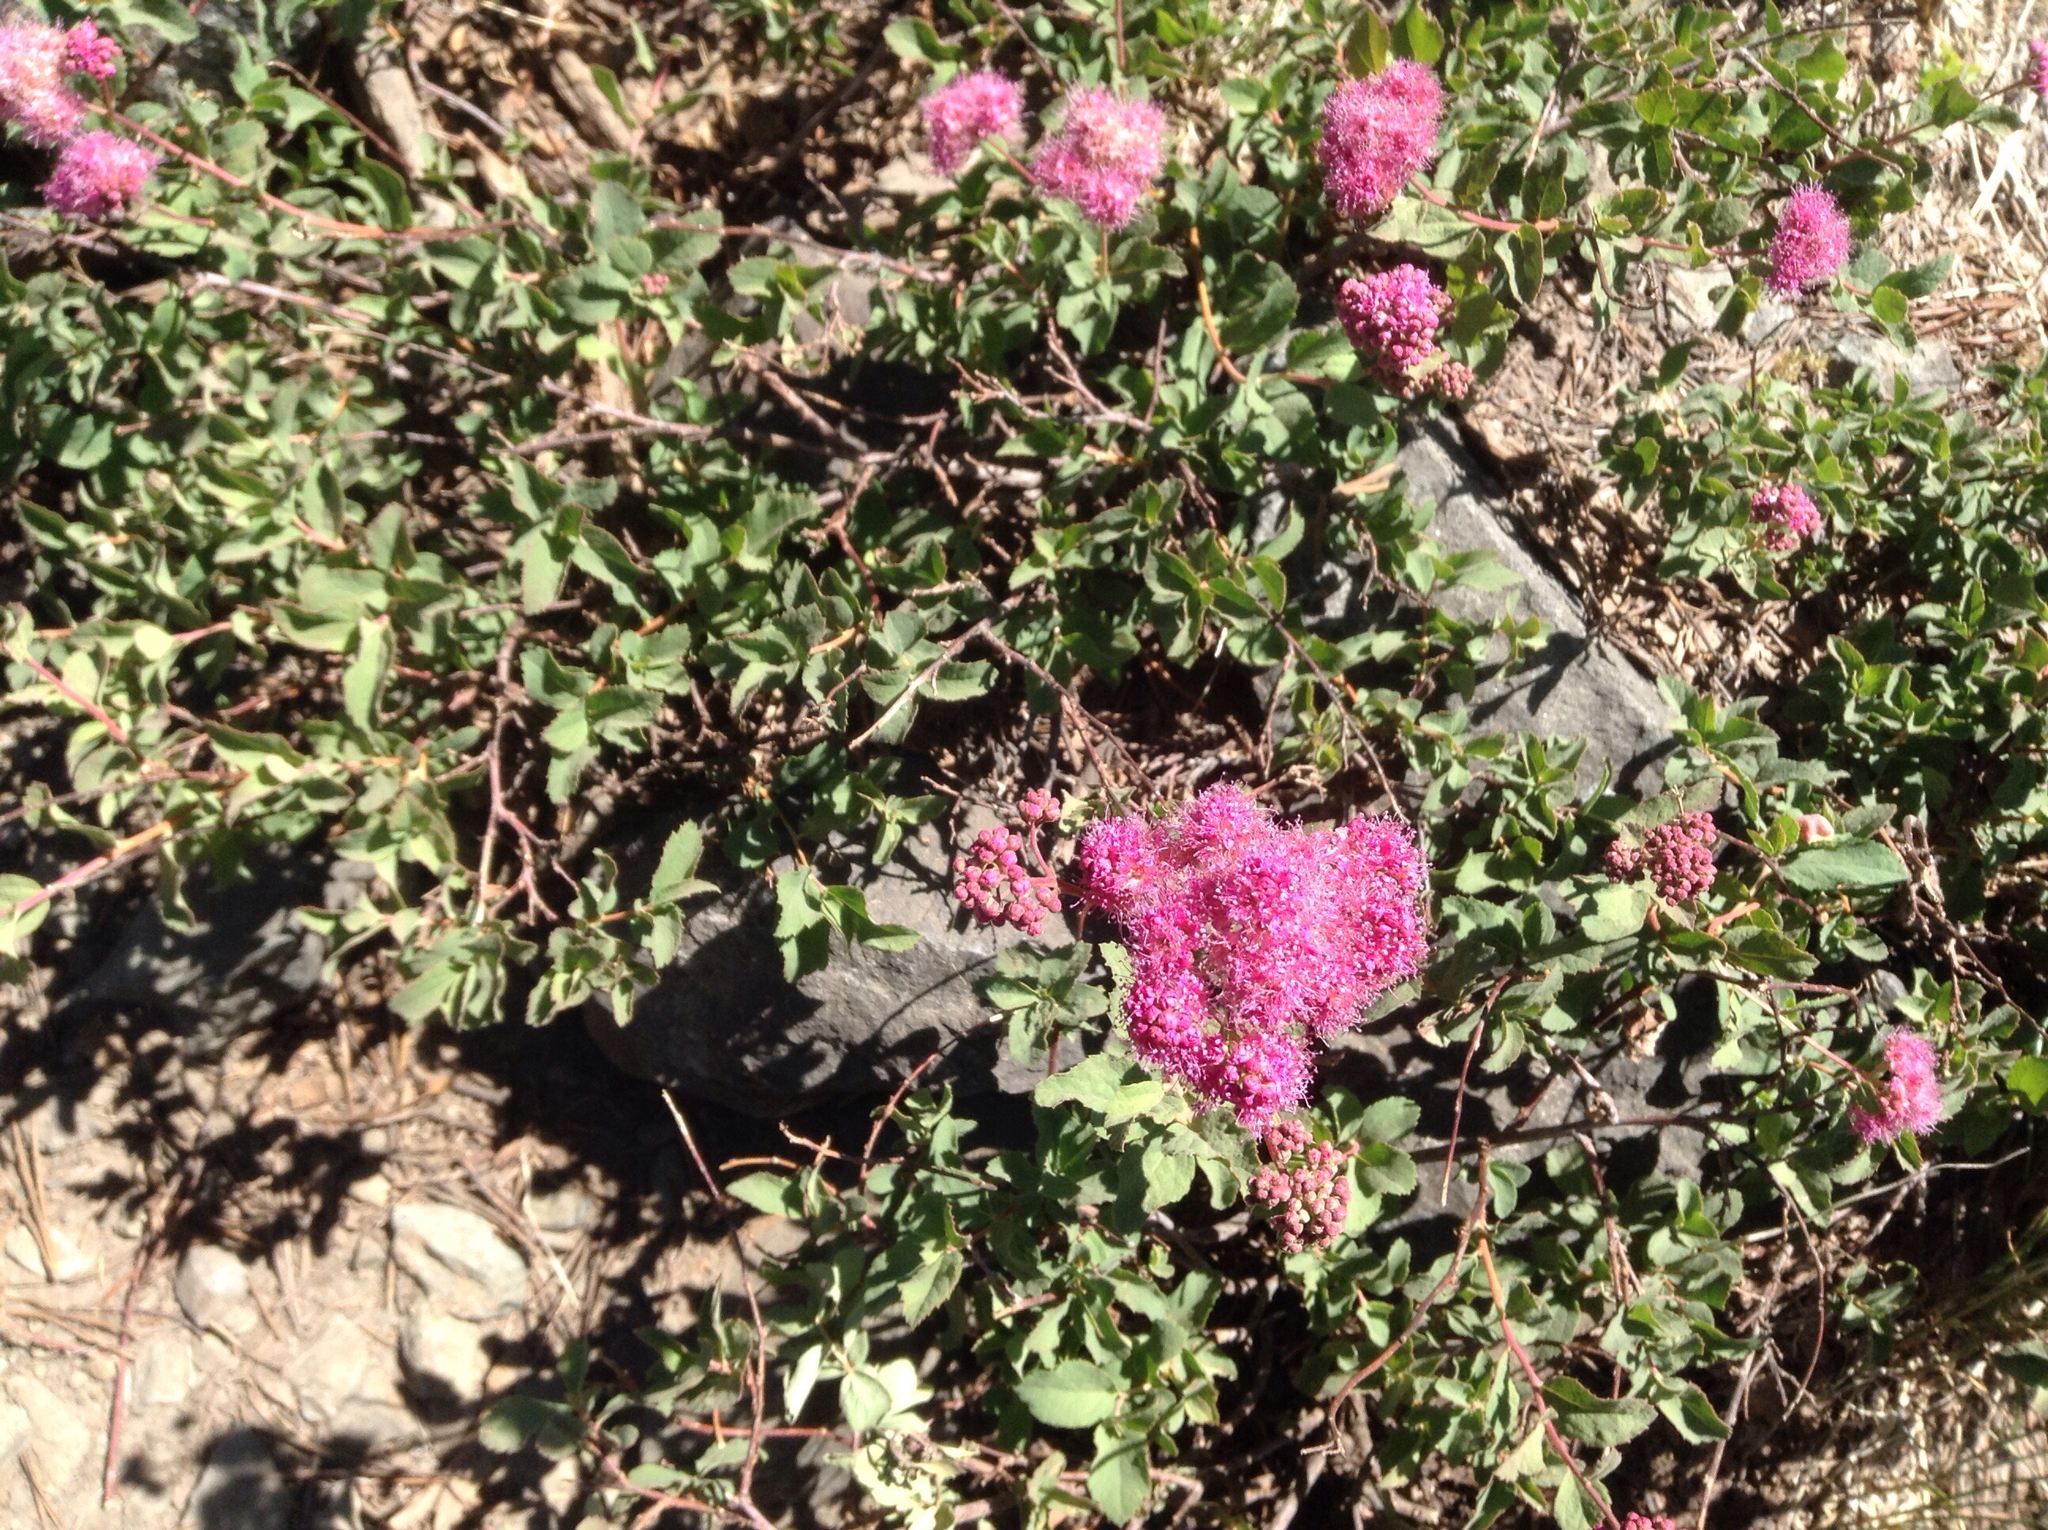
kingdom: Plantae
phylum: Tracheophyta
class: Magnoliopsida
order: Rosales
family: Rosaceae
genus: Spiraea
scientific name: Spiraea splendens
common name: Subalpine meadowsweet
